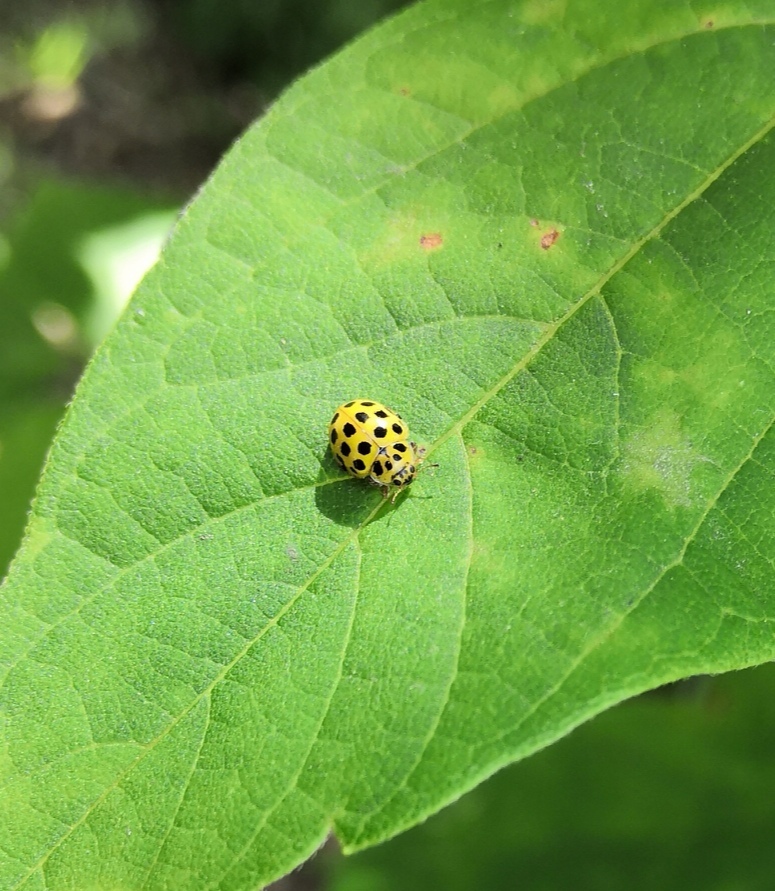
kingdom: Animalia
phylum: Arthropoda
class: Insecta
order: Coleoptera
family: Coccinellidae
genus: Psyllobora
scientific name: Psyllobora vigintiduopunctata
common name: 22-spot ladybird
